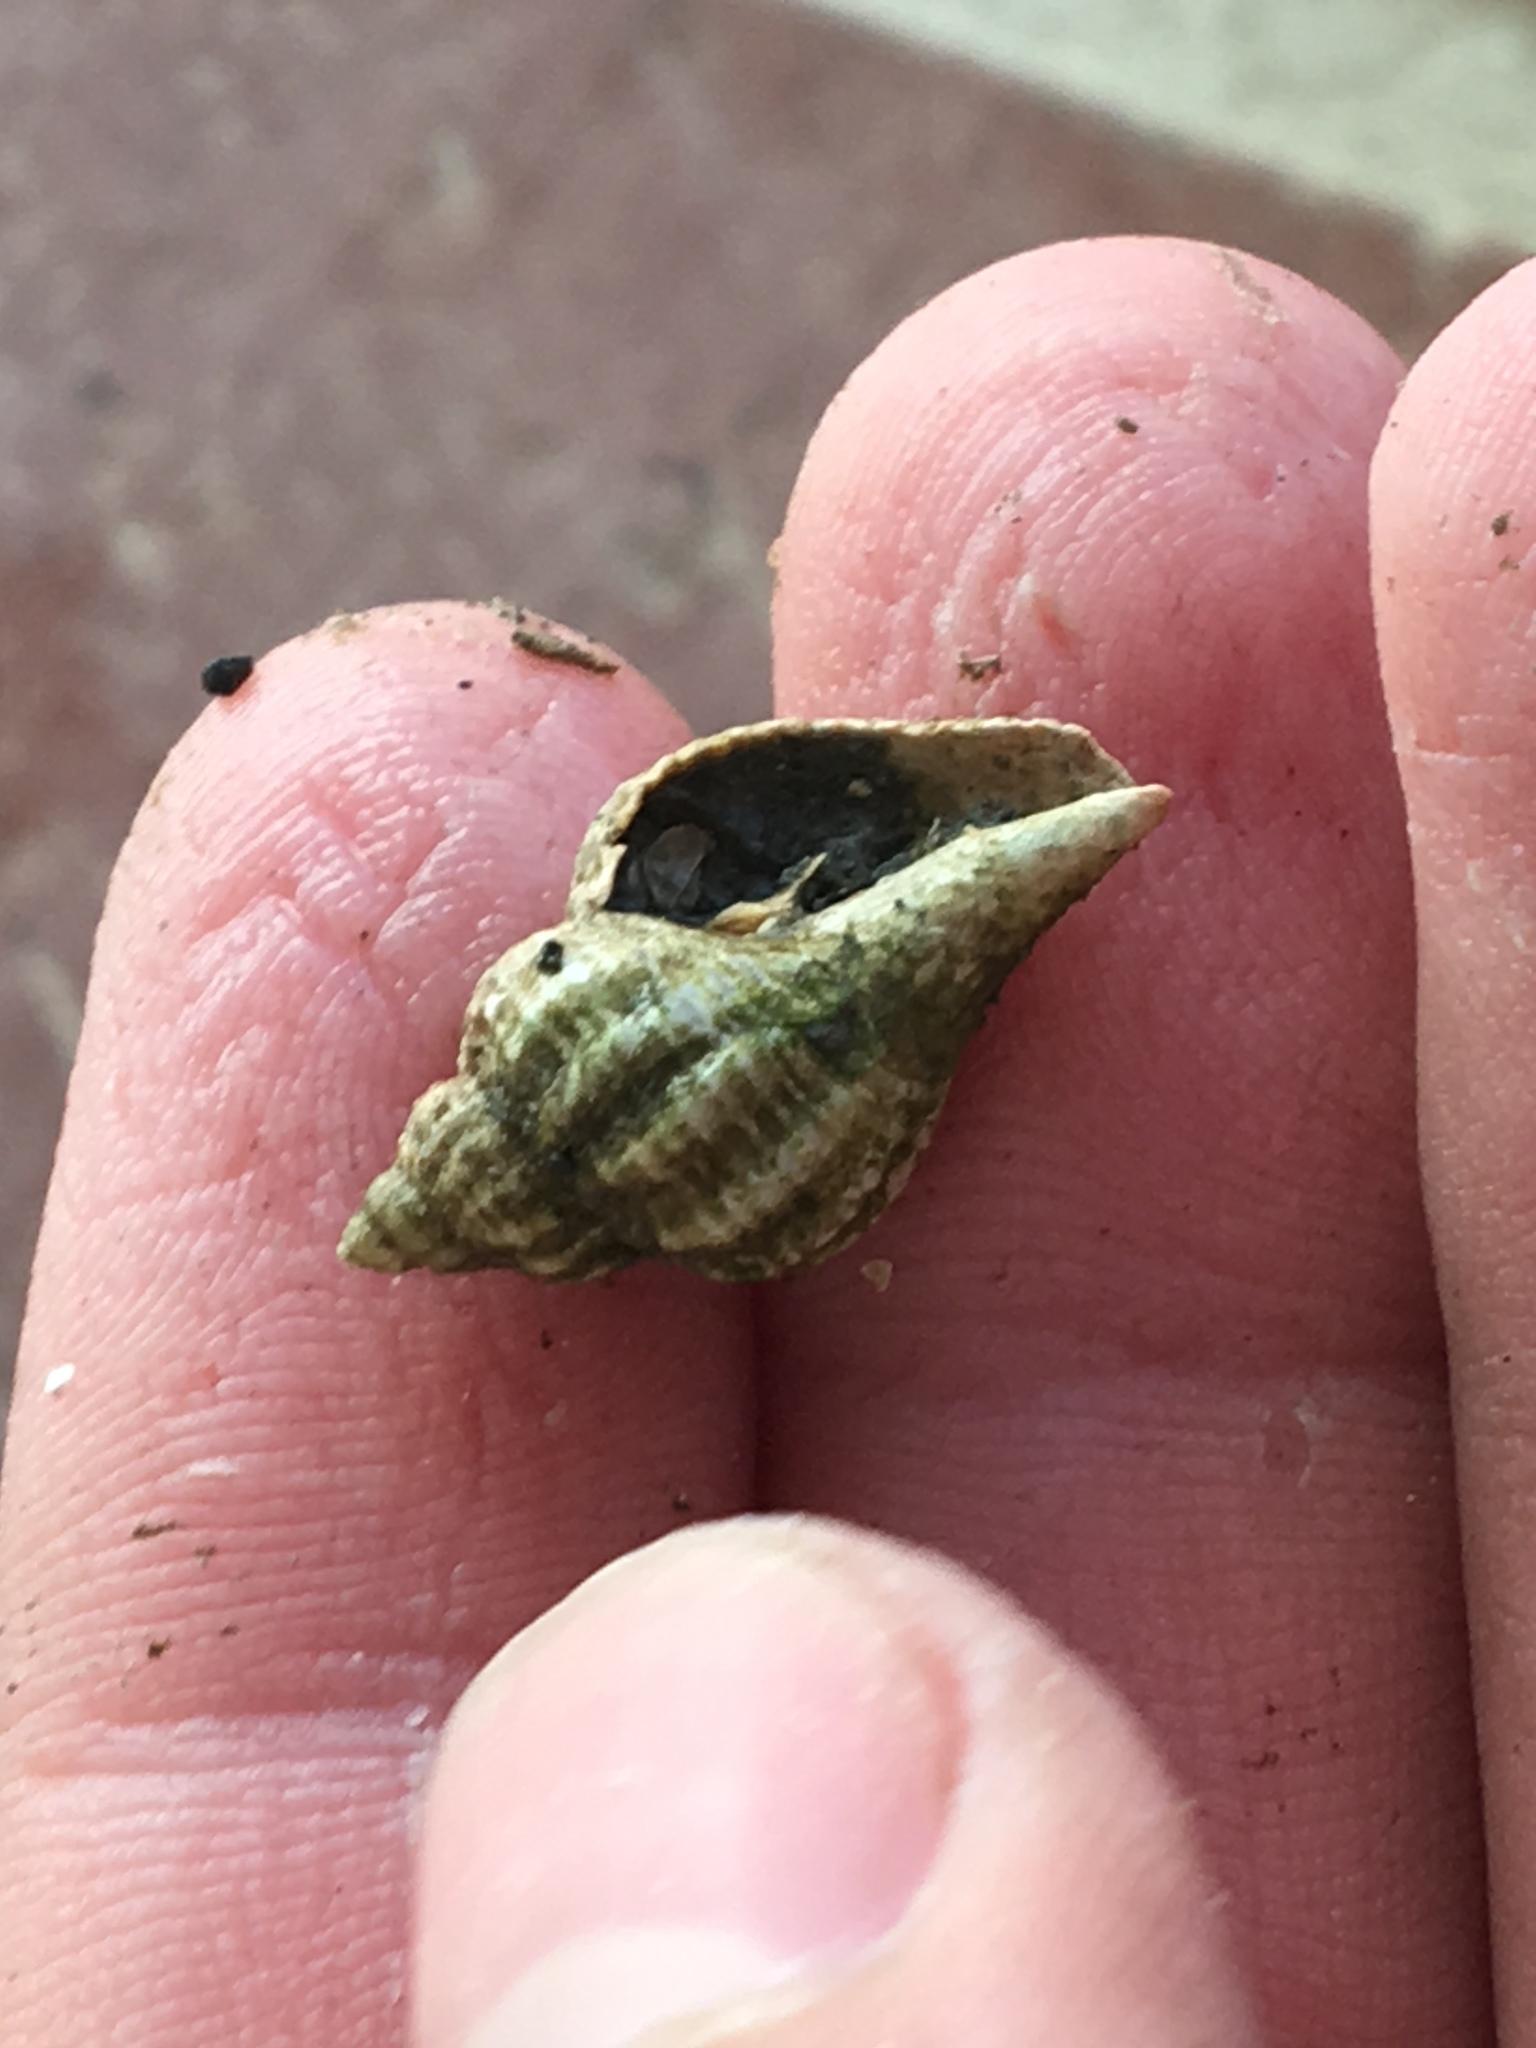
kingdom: Animalia
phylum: Mollusca
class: Gastropoda
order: Neogastropoda
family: Muricidae
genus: Urosalpinx
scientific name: Urosalpinx cinerea
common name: American sting winkle
